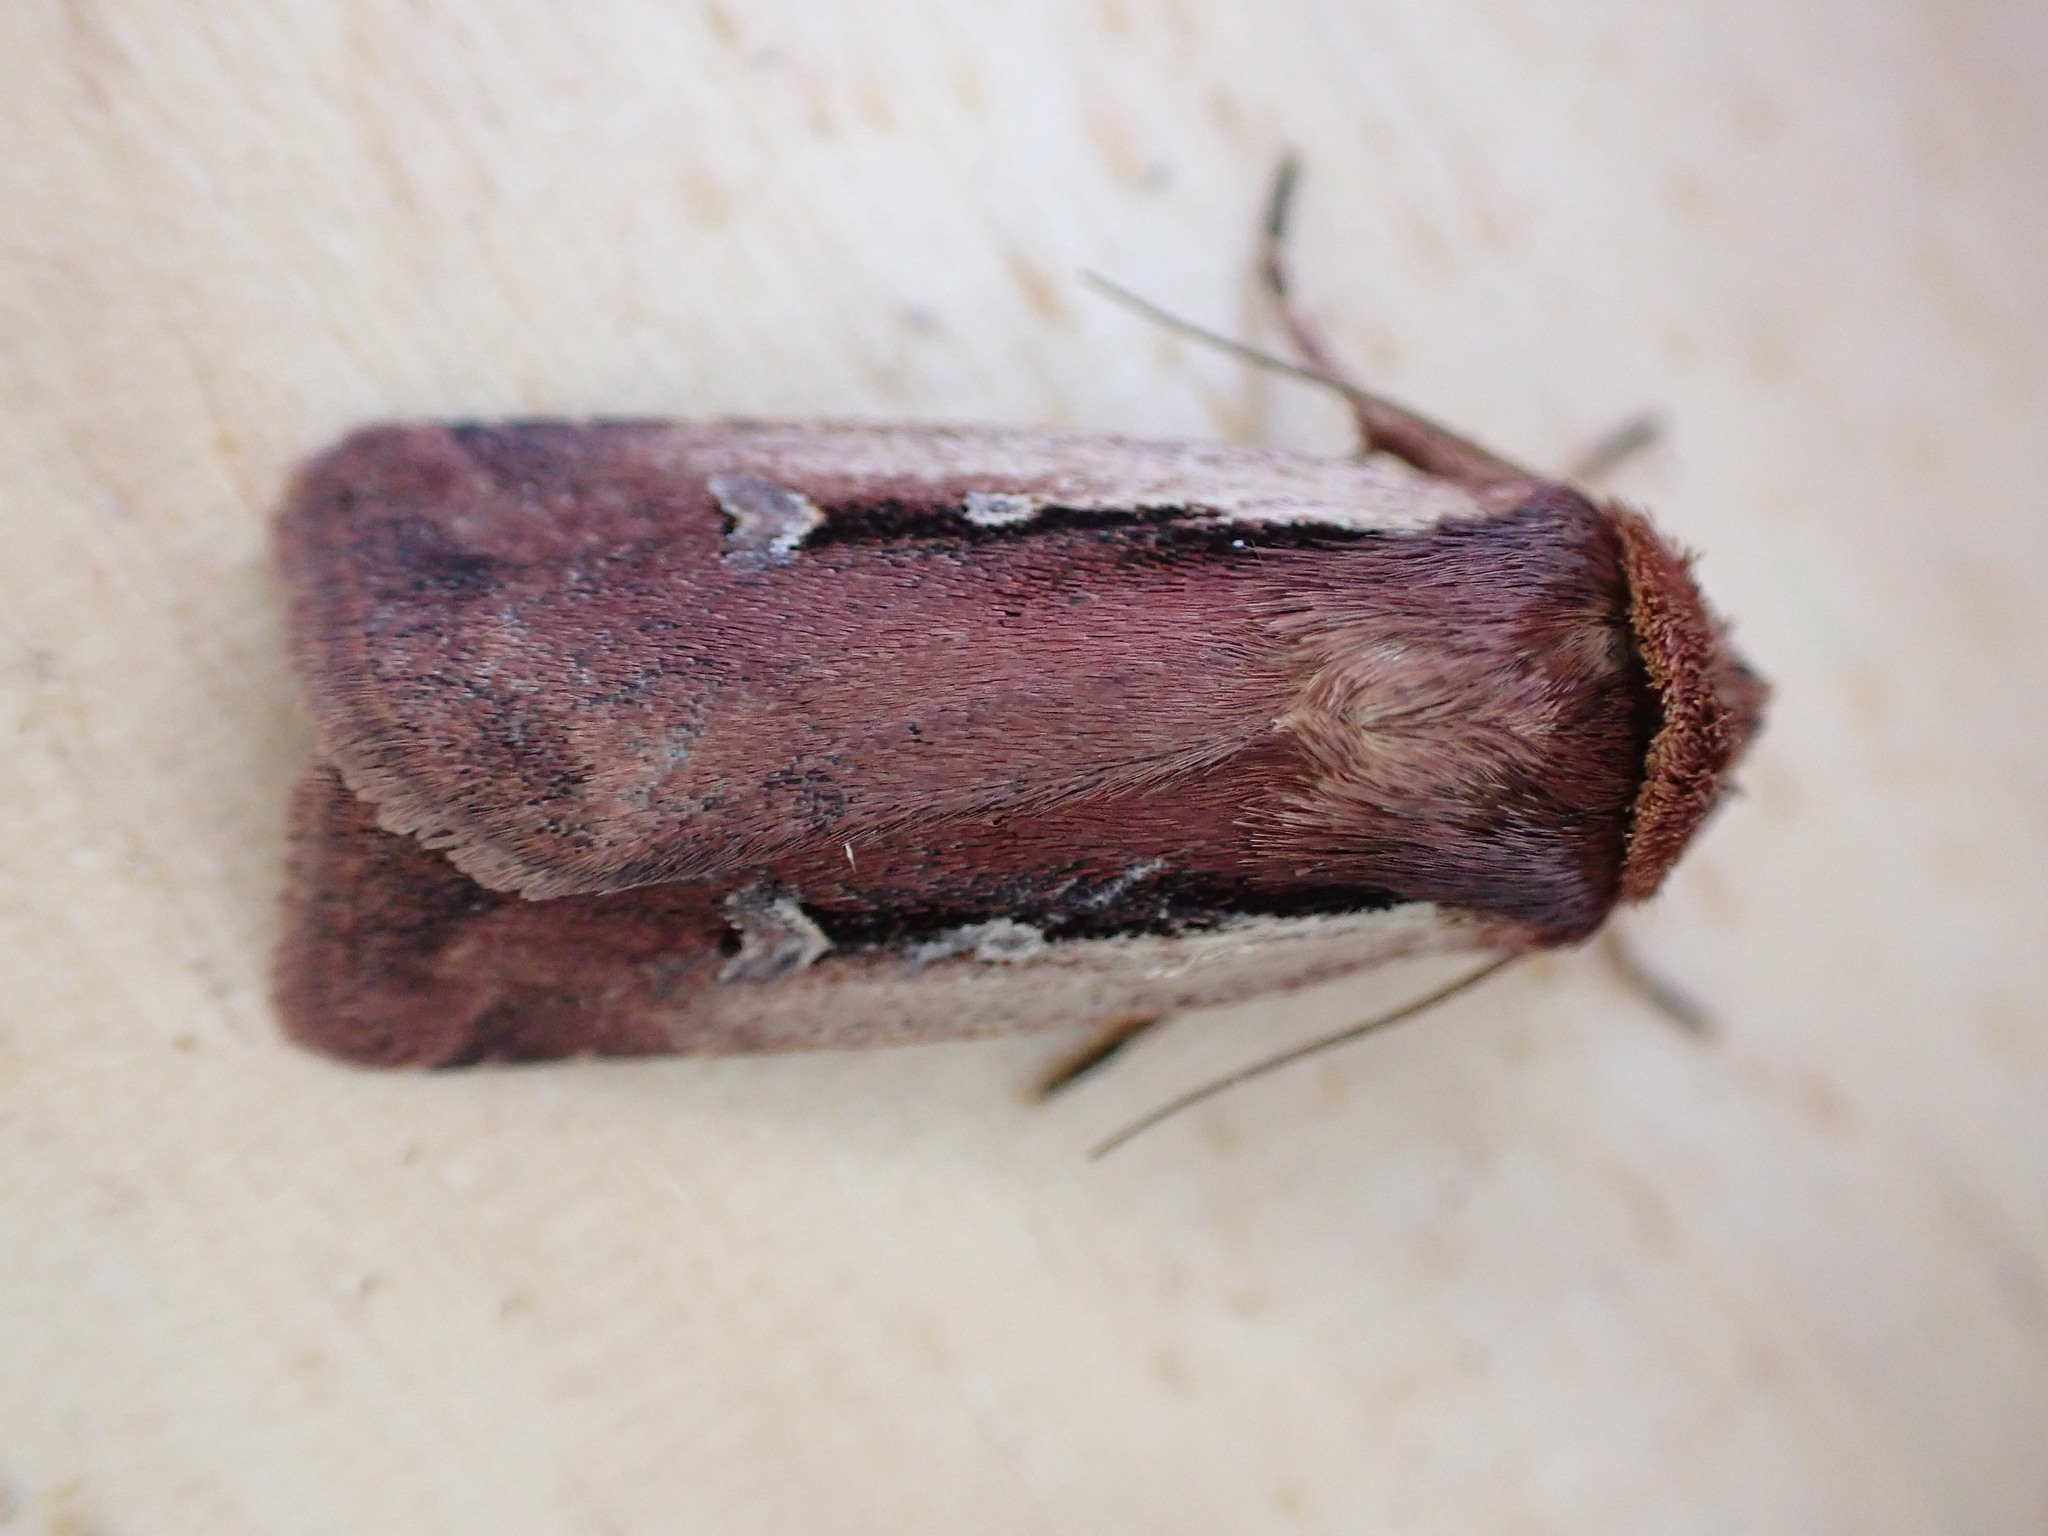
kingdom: Animalia
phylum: Arthropoda
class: Insecta
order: Lepidoptera
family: Noctuidae
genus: Ochropleura
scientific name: Ochropleura plecta
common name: Flame shoulder
